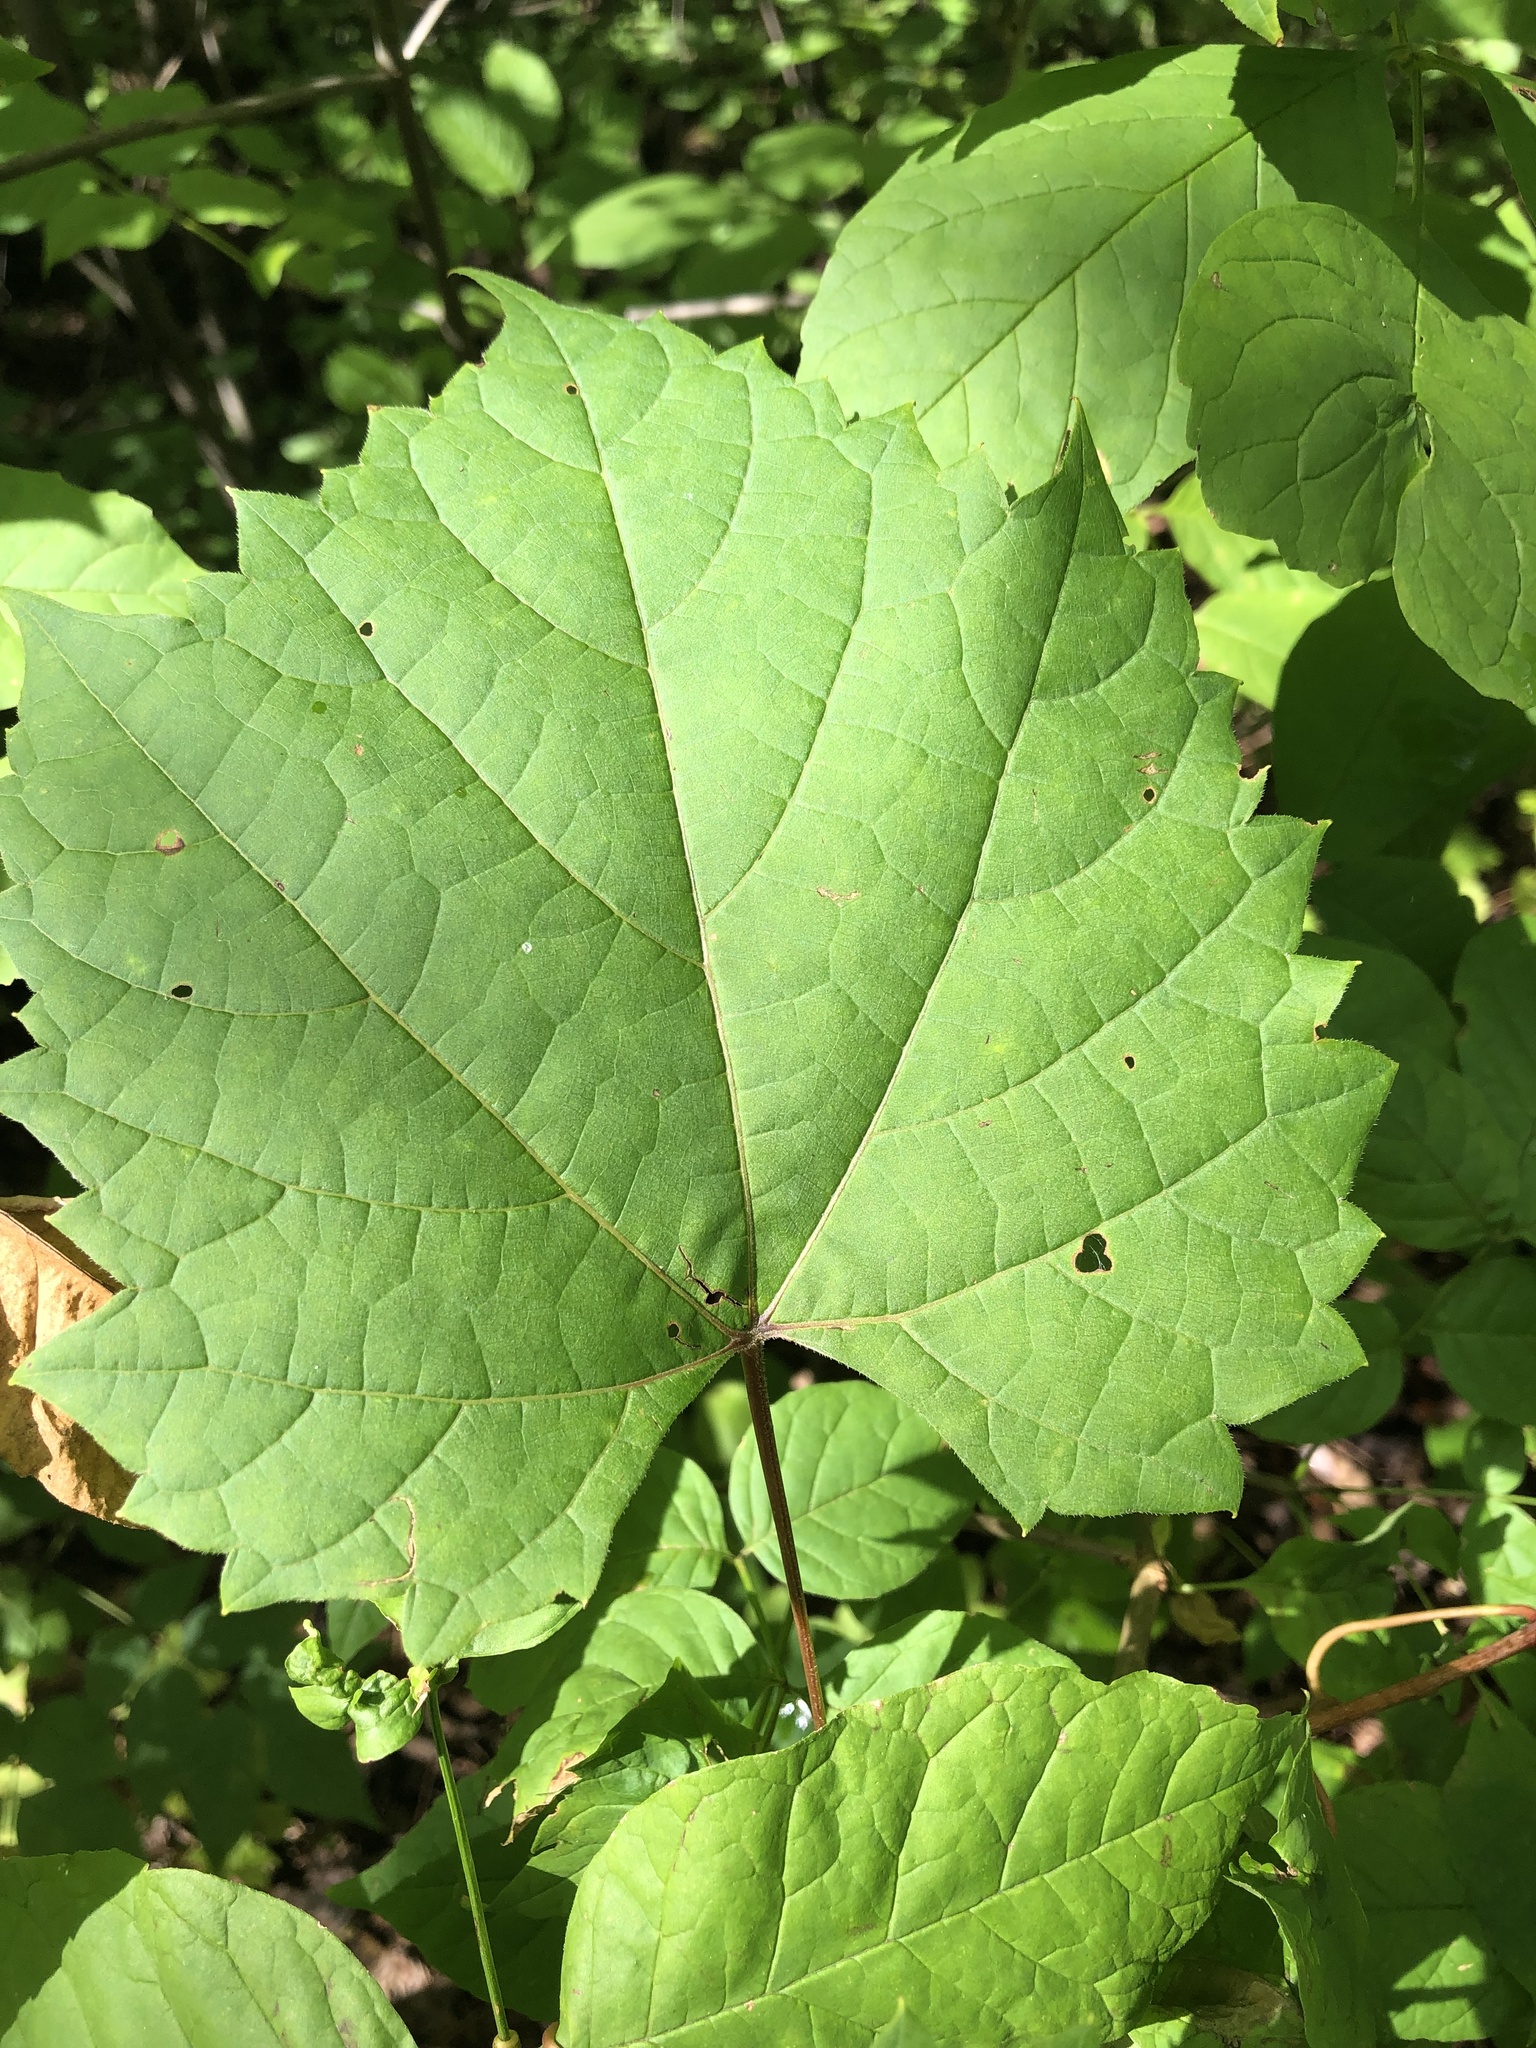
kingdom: Plantae
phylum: Tracheophyta
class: Magnoliopsida
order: Vitales
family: Vitaceae
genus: Vitis
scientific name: Vitis riparia
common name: Frost grape
